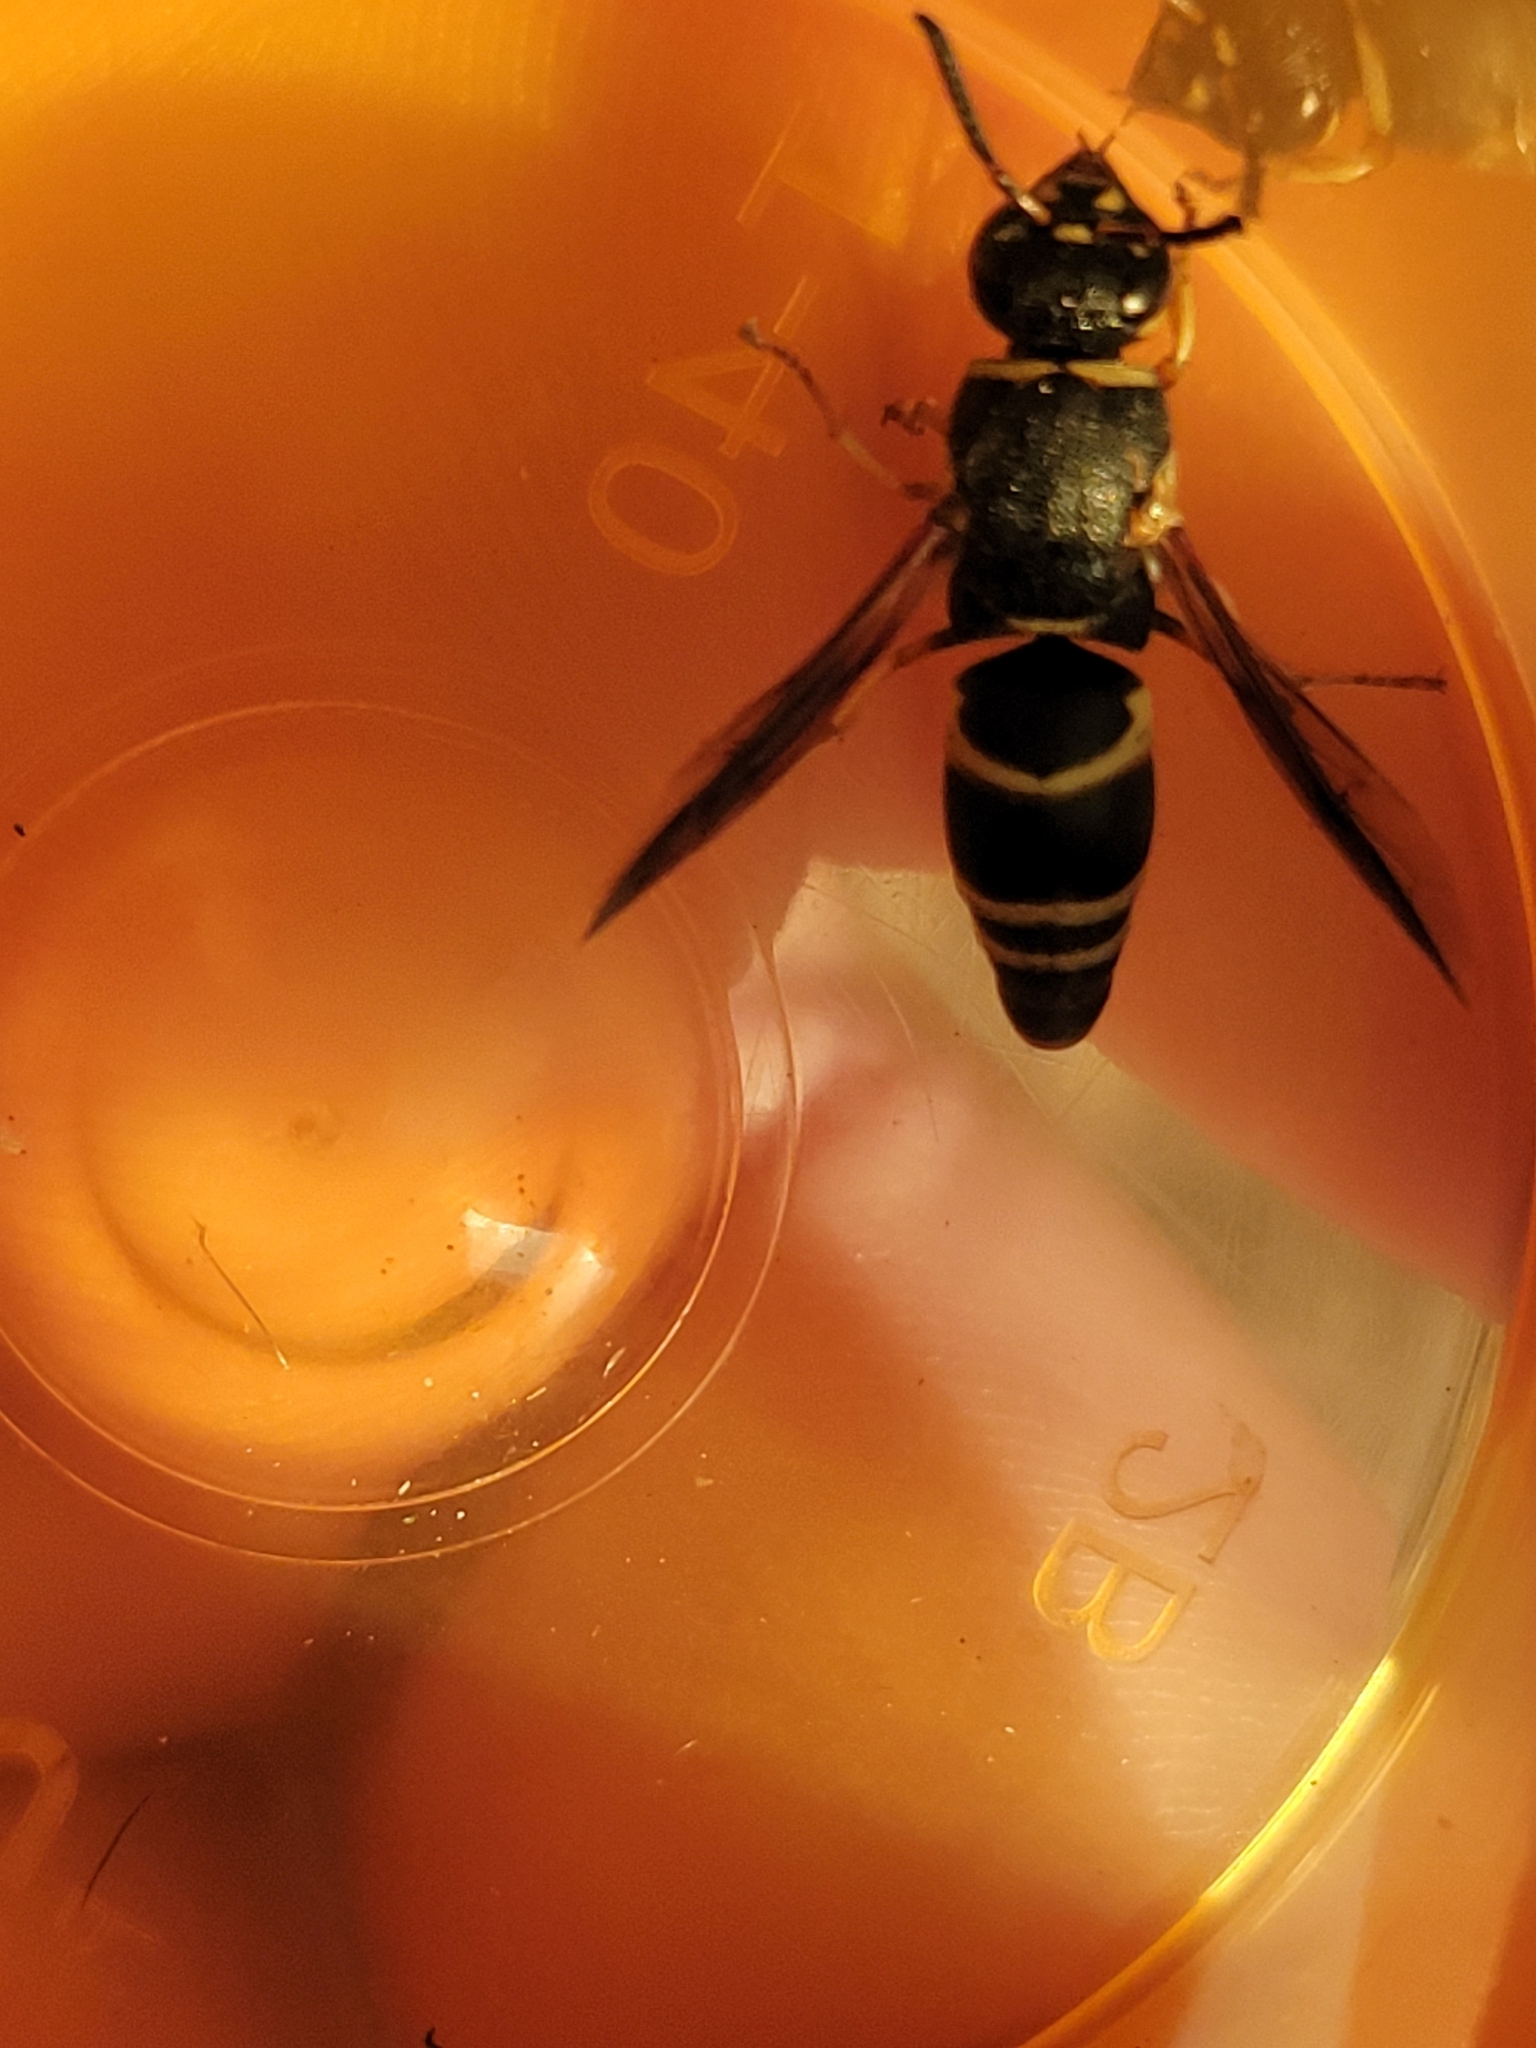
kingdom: Animalia
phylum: Arthropoda
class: Insecta
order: Hymenoptera
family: Eumenidae
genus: Euodynerus
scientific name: Euodynerus hidalgo
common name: Wasp
